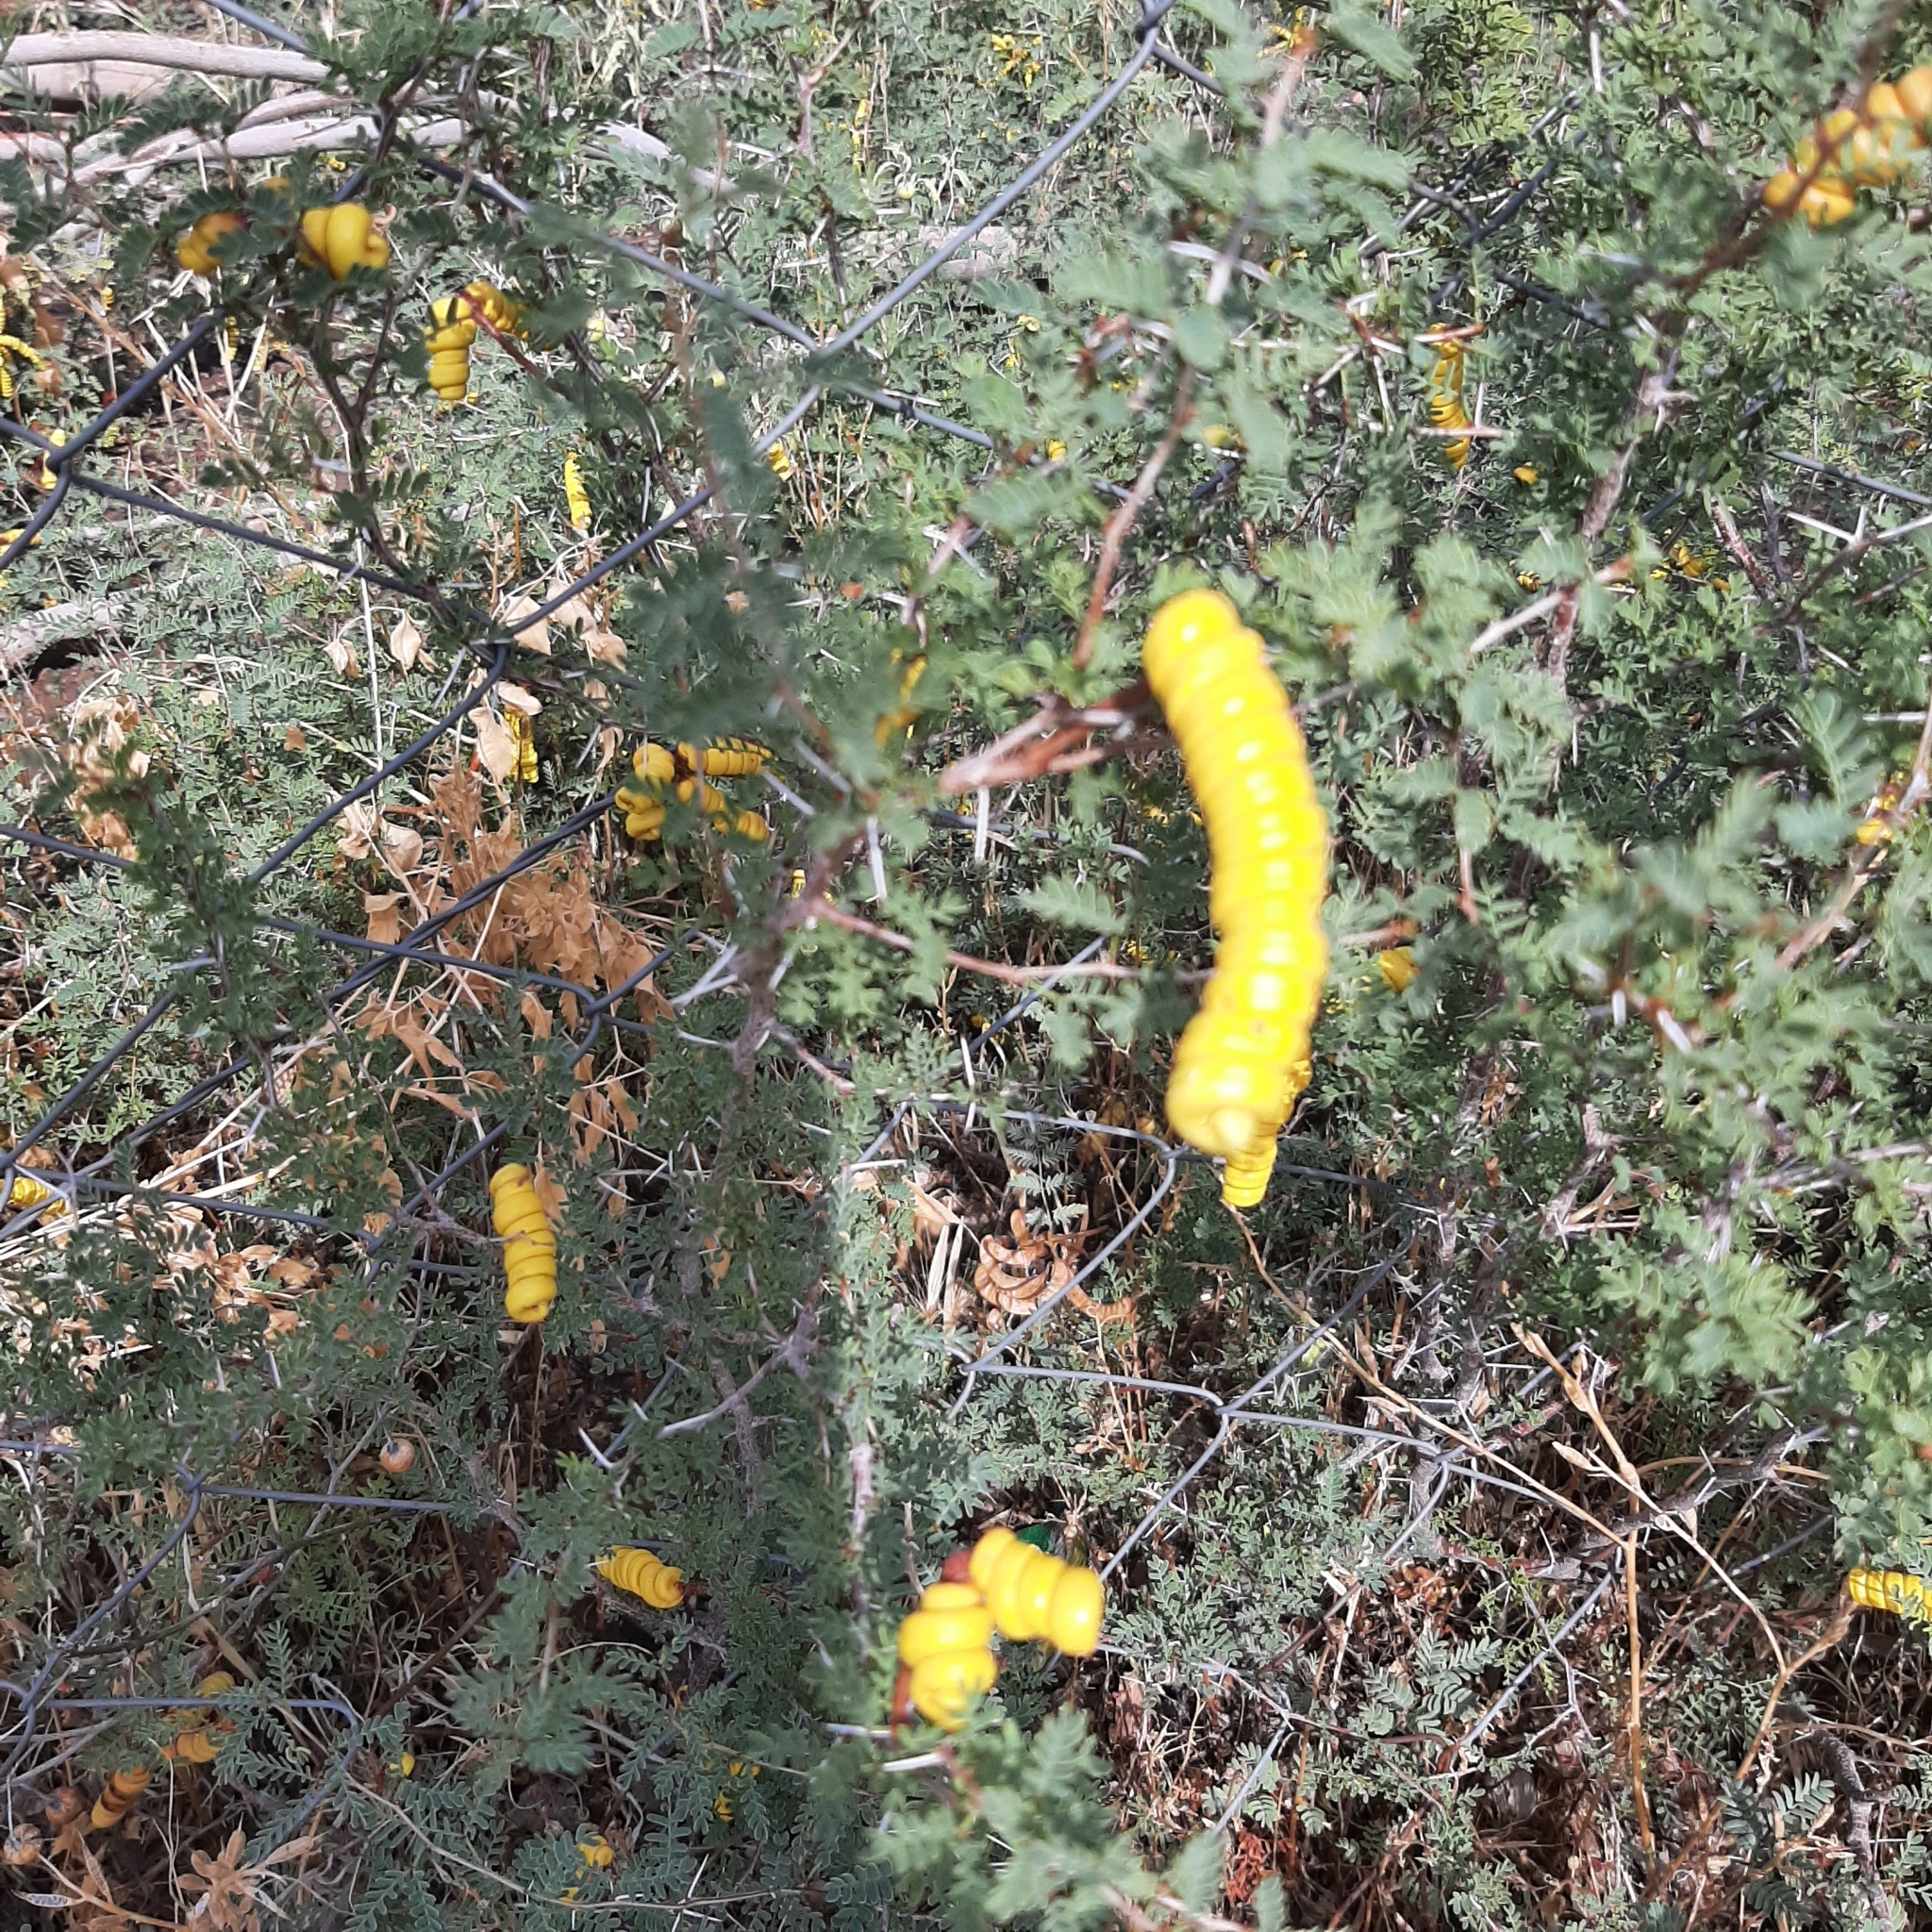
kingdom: Plantae
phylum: Tracheophyta
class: Magnoliopsida
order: Fabales
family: Fabaceae
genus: Prosopis
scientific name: Prosopis strombulifera
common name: Creeping mesquite
